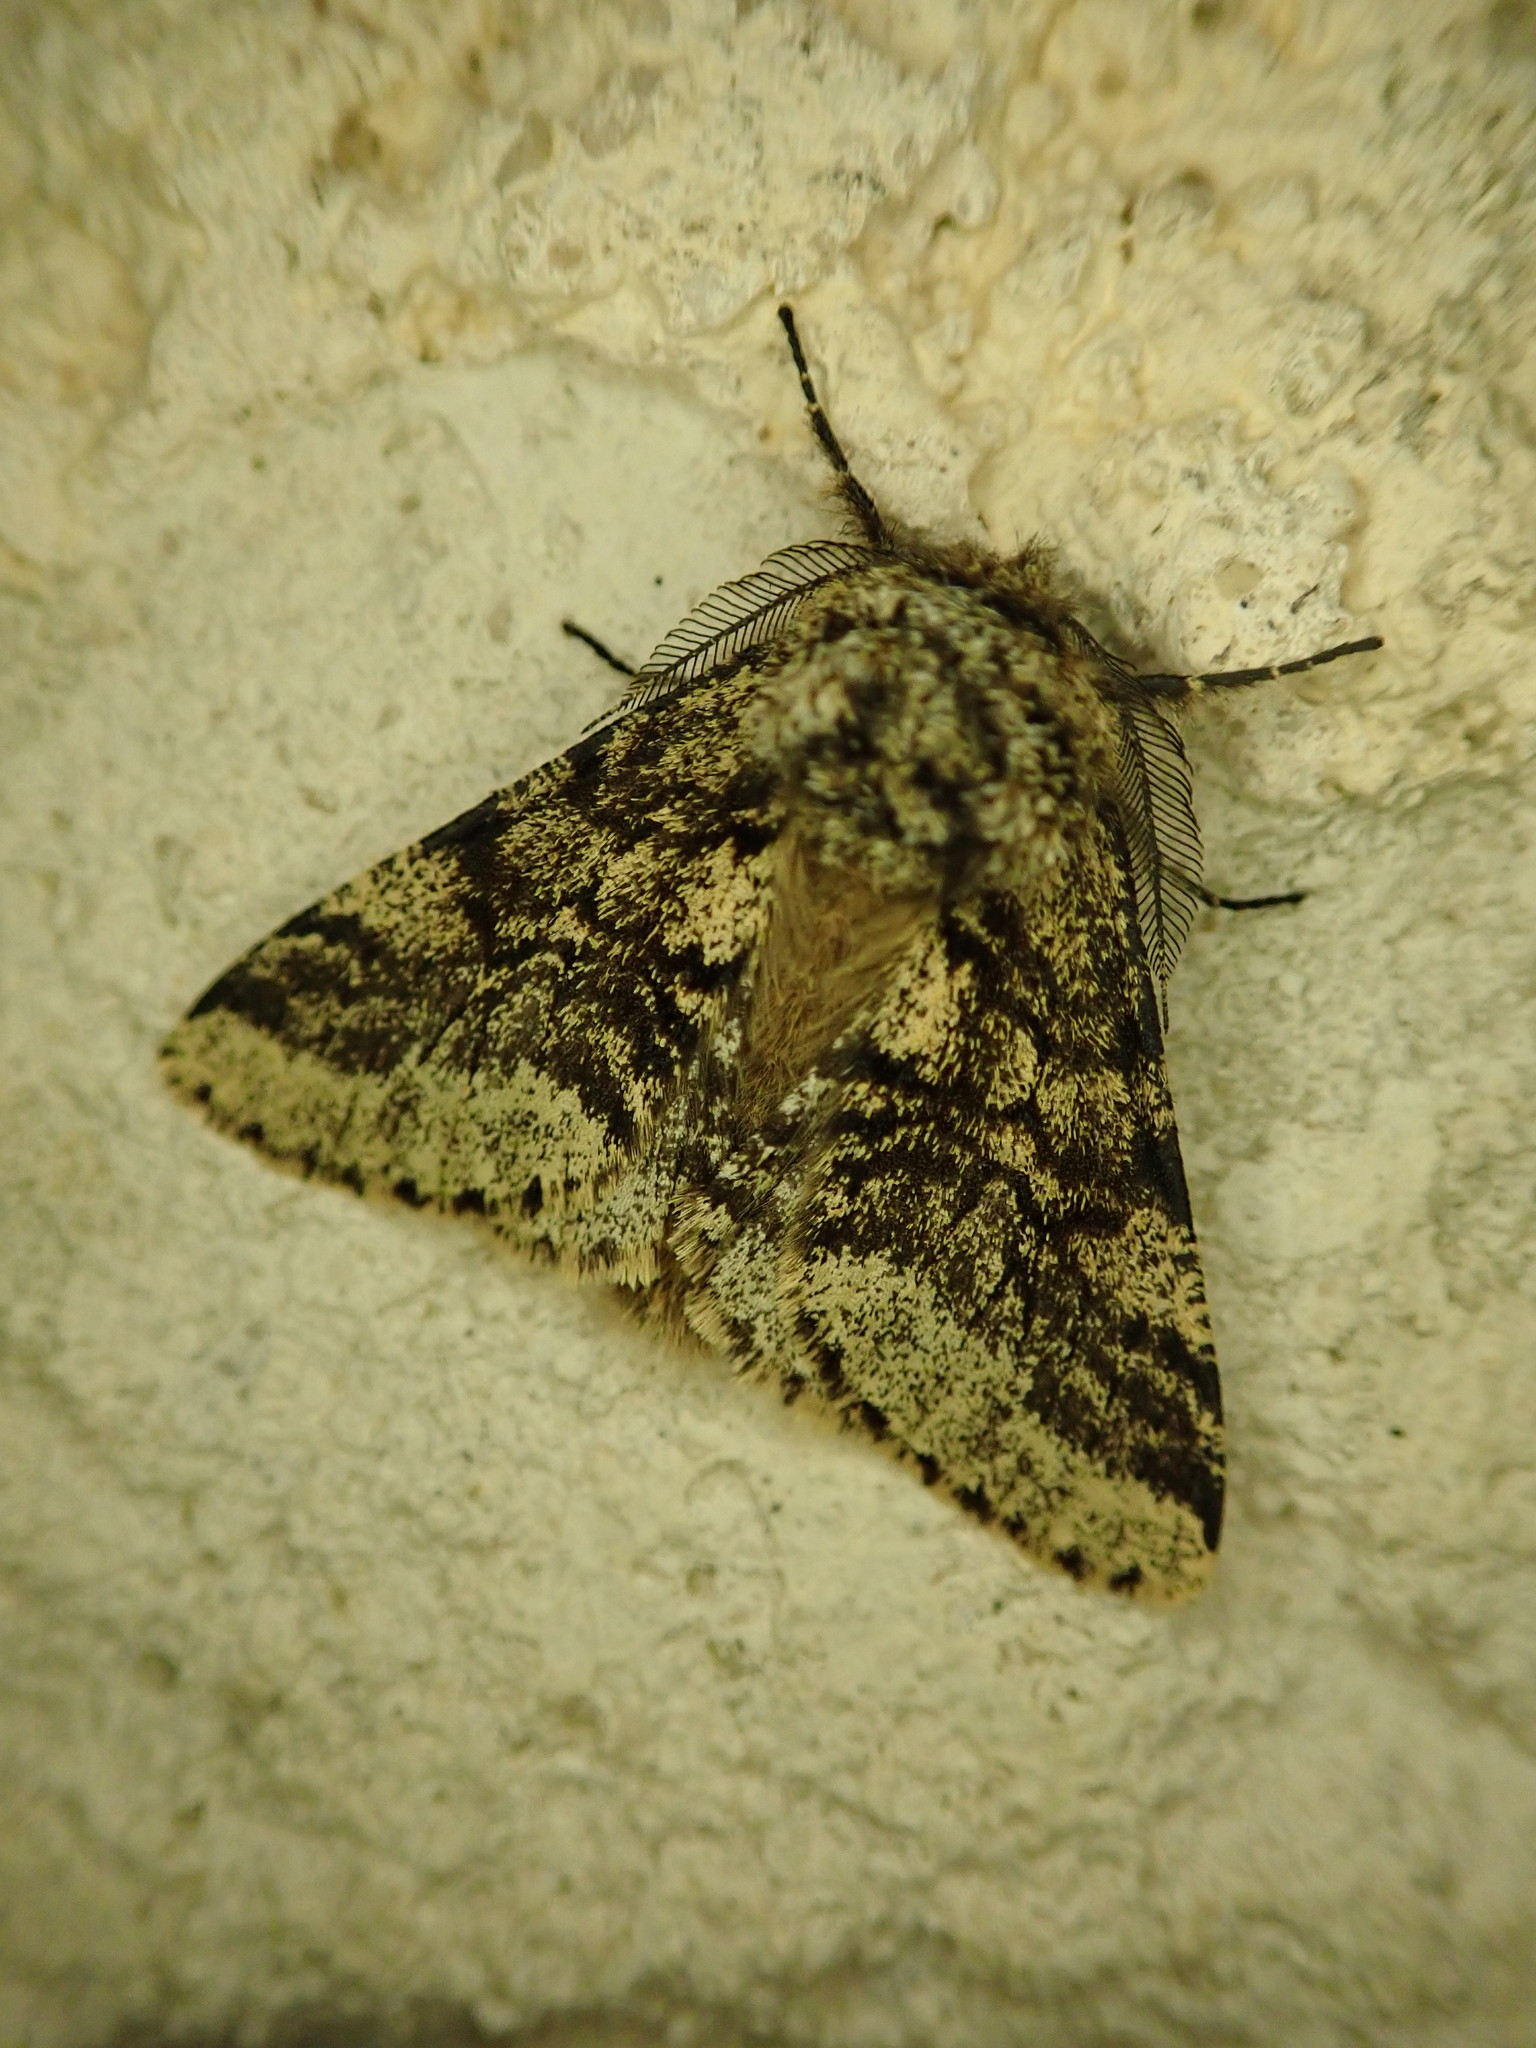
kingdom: Animalia
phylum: Arthropoda
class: Insecta
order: Lepidoptera
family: Geometridae
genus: Lycia
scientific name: Lycia hirtaria
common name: Brindled beauty
